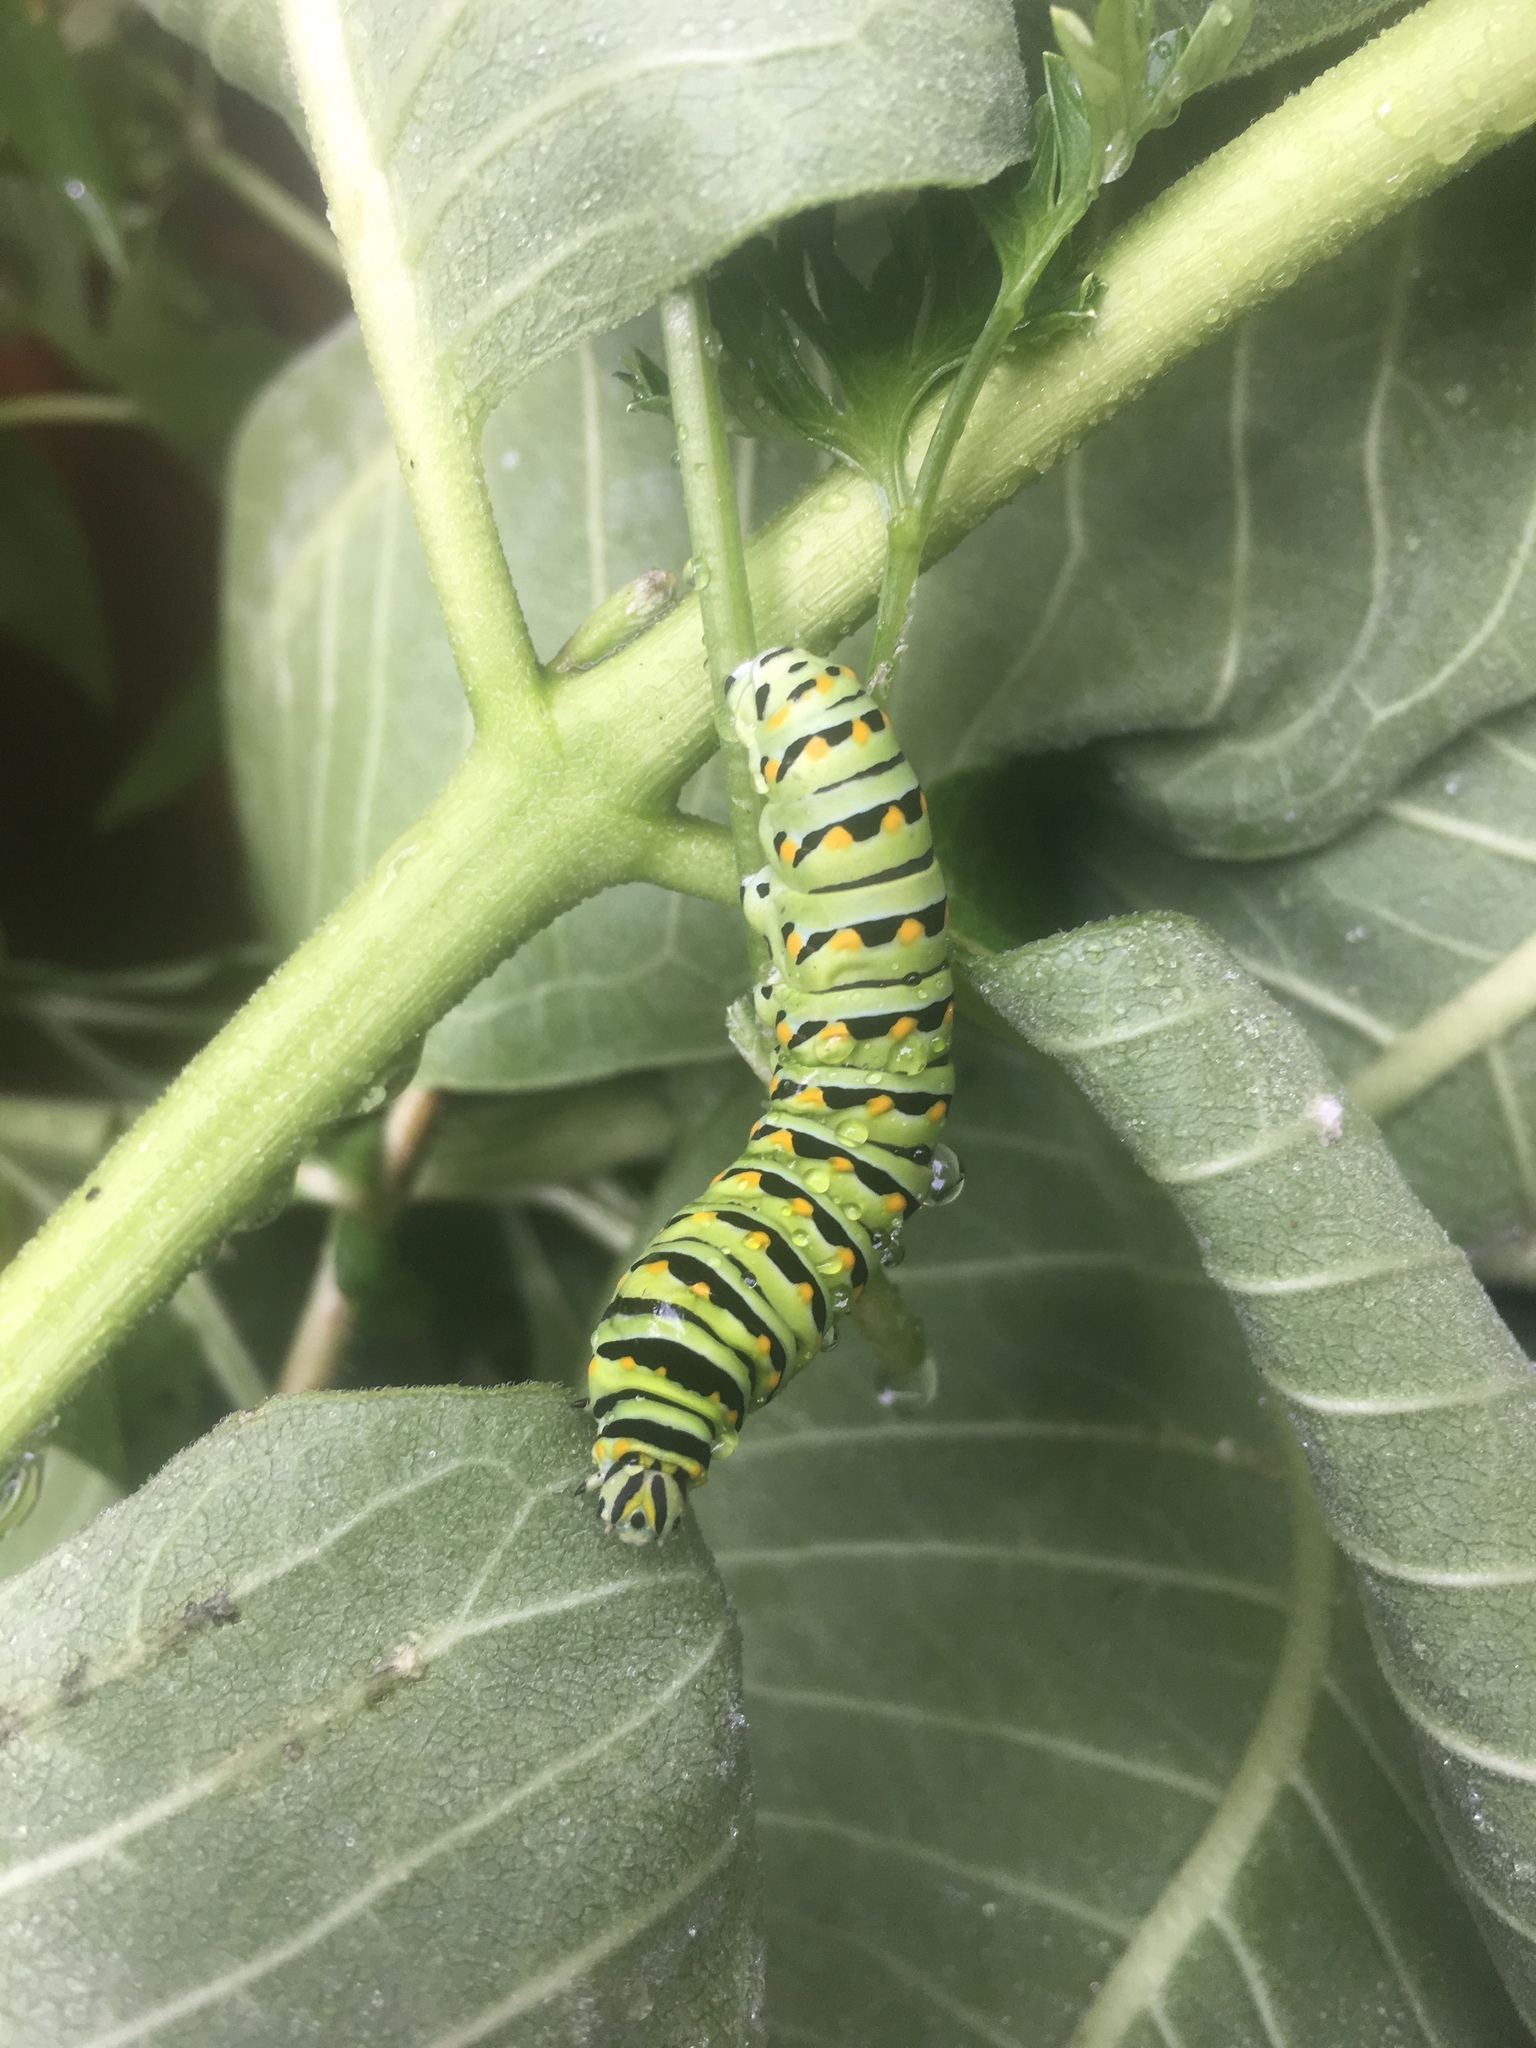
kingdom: Animalia
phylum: Arthropoda
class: Insecta
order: Lepidoptera
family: Papilionidae
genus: Papilio
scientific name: Papilio polyxenes
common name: Black swallowtail
